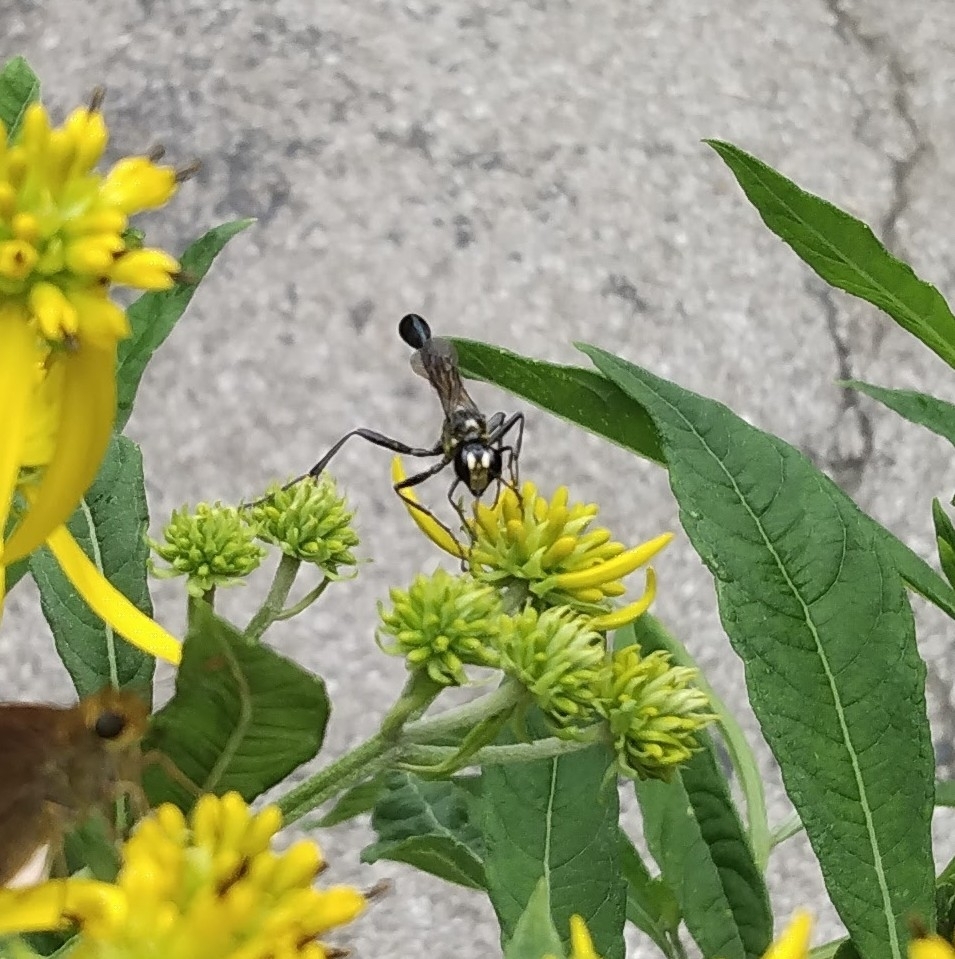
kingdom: Animalia
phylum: Arthropoda
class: Insecta
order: Hymenoptera
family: Sphecidae
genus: Eremnophila
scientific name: Eremnophila aureonotata
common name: Gold-marked thread-waisted wasp
